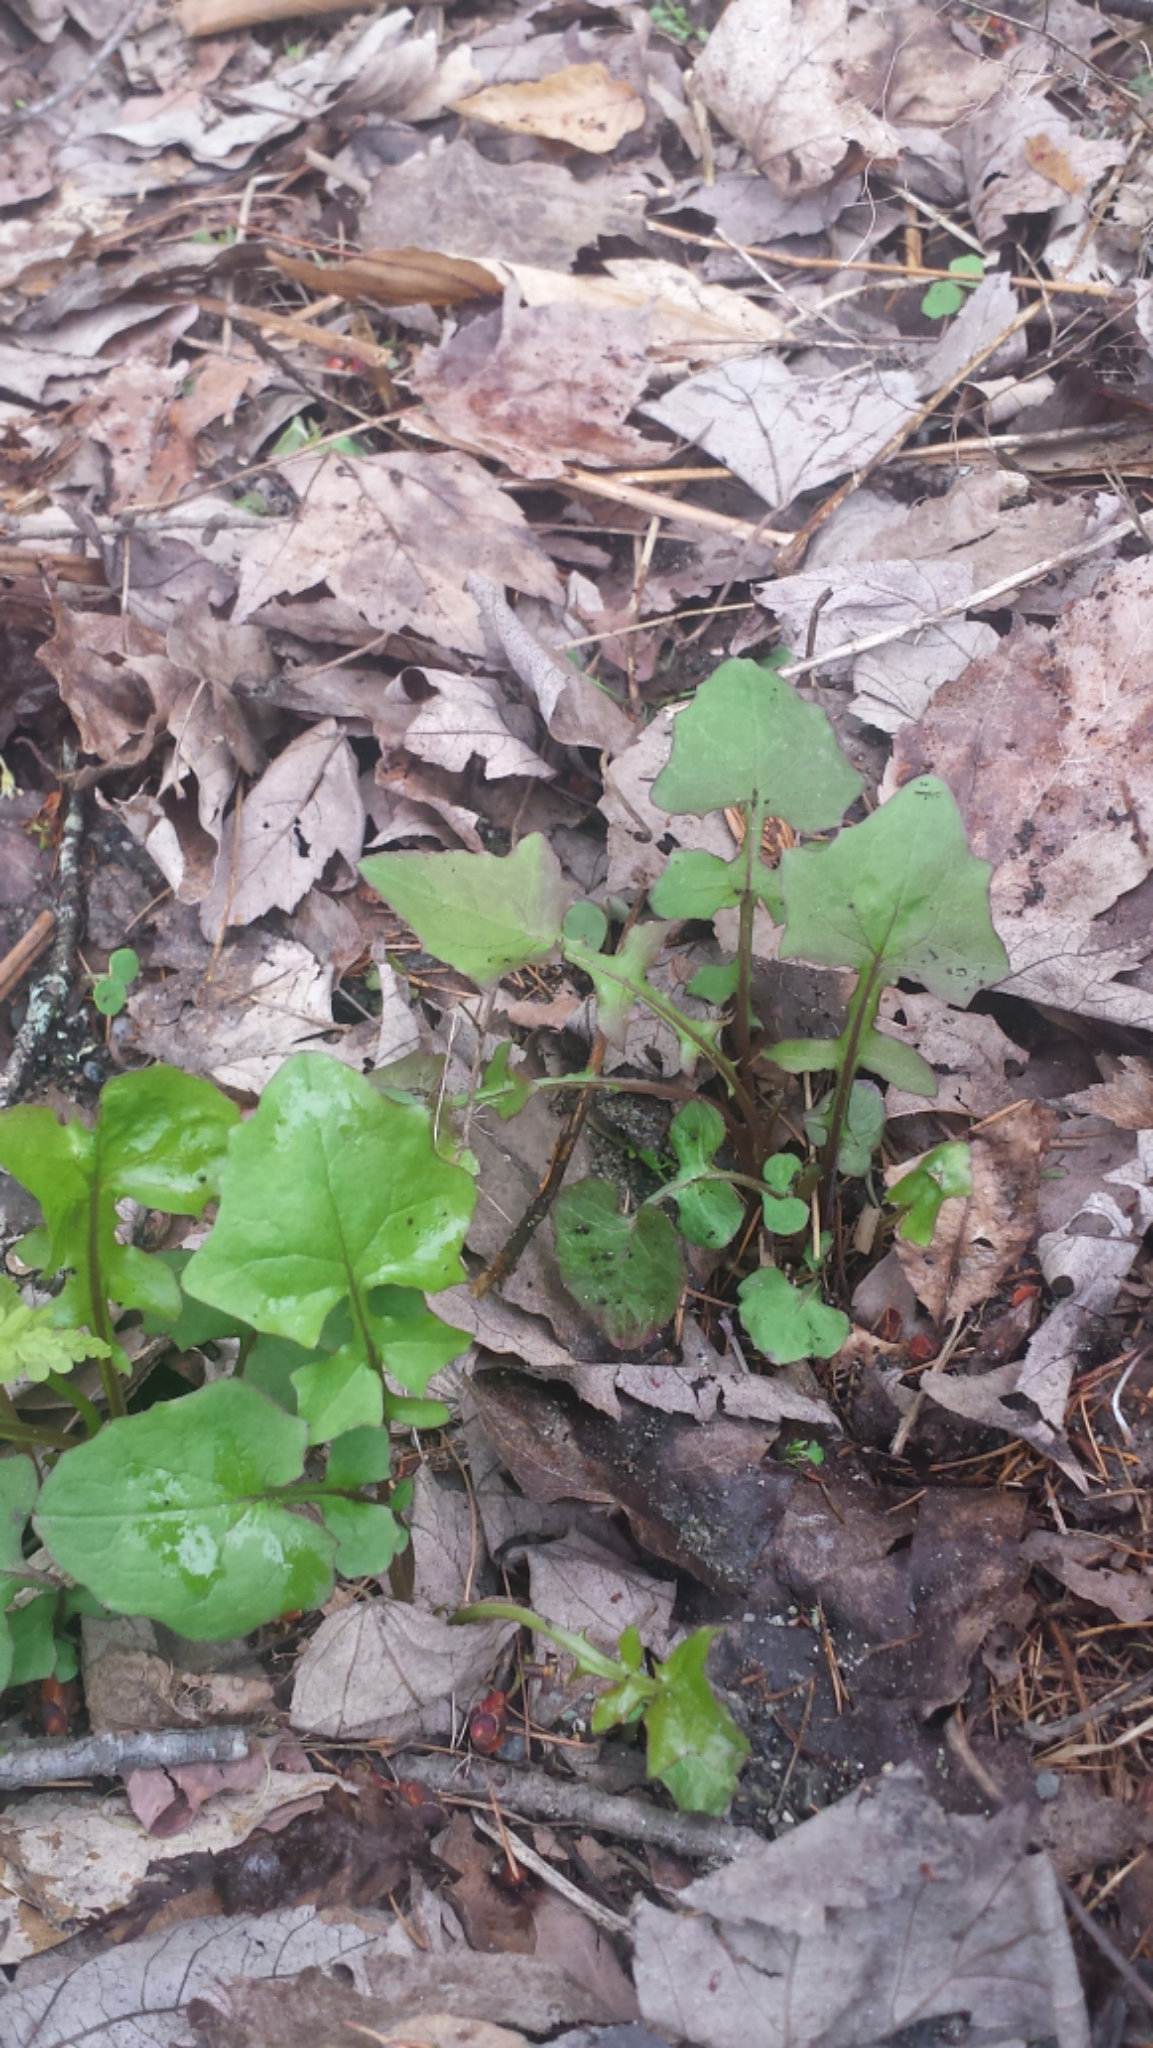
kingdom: Plantae
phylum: Tracheophyta
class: Magnoliopsida
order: Asterales
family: Asteraceae
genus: Mycelis
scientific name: Mycelis muralis
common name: Wall lettuce
